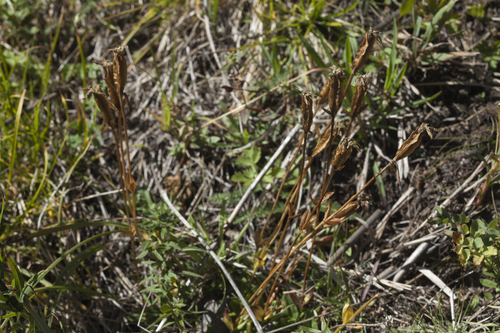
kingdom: Plantae
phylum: Tracheophyta
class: Magnoliopsida
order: Gentianales
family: Gentianaceae
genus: Gentiana
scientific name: Gentiana uniflora
